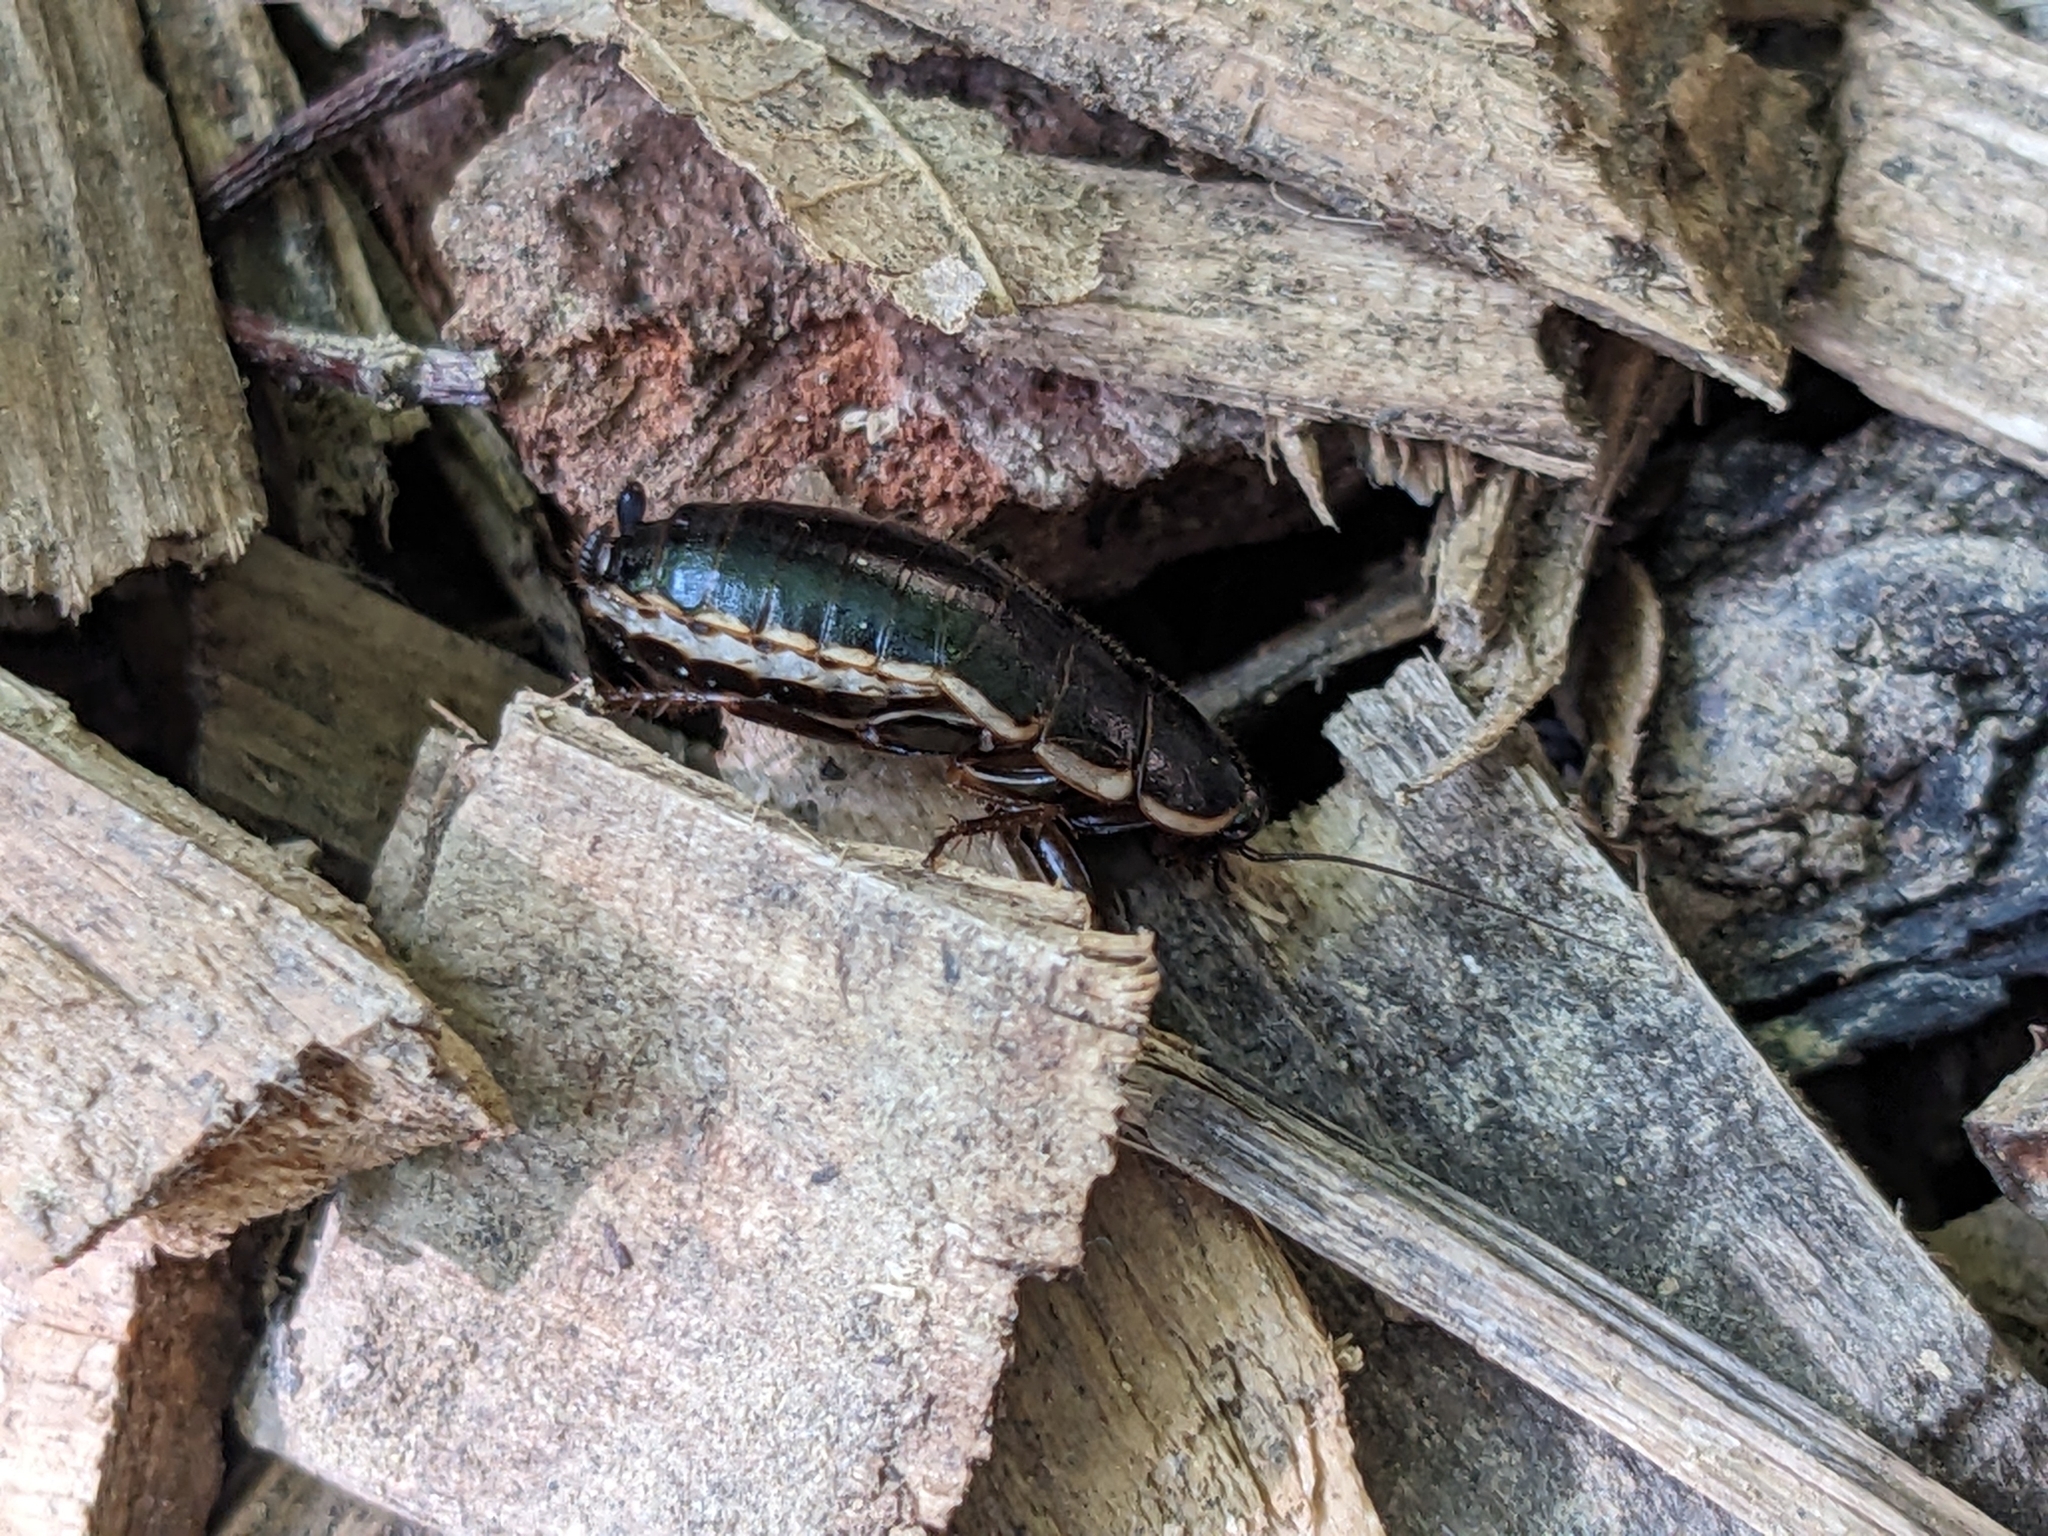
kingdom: Animalia
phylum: Arthropoda
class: Insecta
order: Blattodea
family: Ectobiidae
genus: Loboptera
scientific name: Loboptera decipiens
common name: Lobe-winged cockroach
